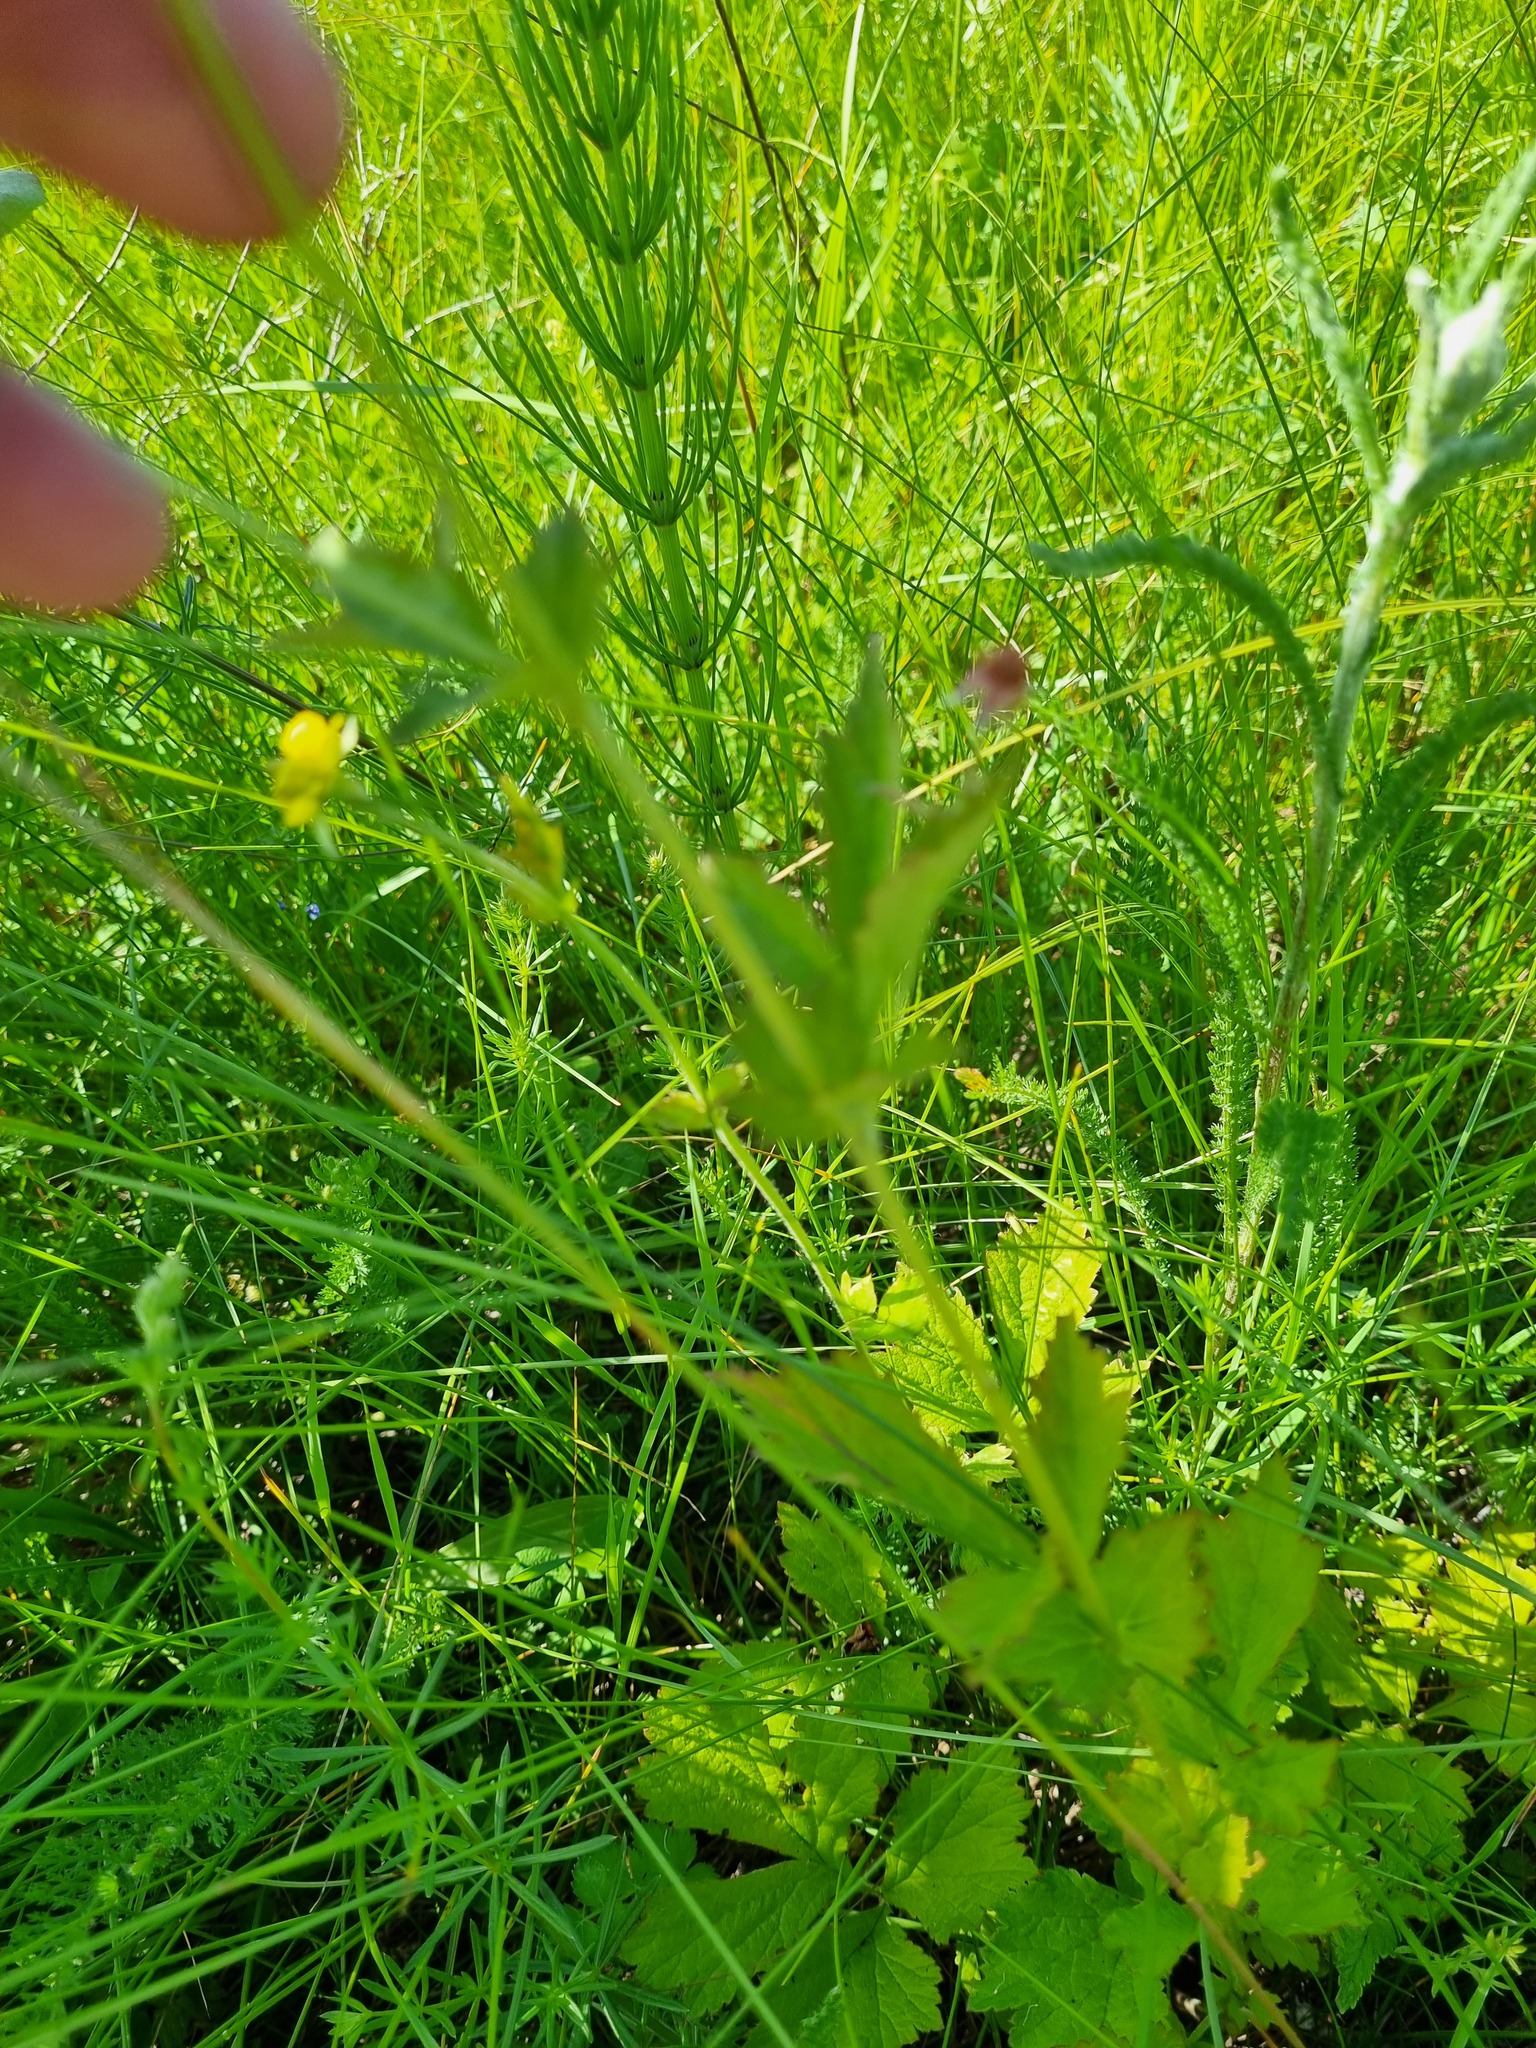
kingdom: Plantae
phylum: Tracheophyta
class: Magnoliopsida
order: Rosales
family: Rosaceae
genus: Geum
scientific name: Geum rivale
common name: Water avens
